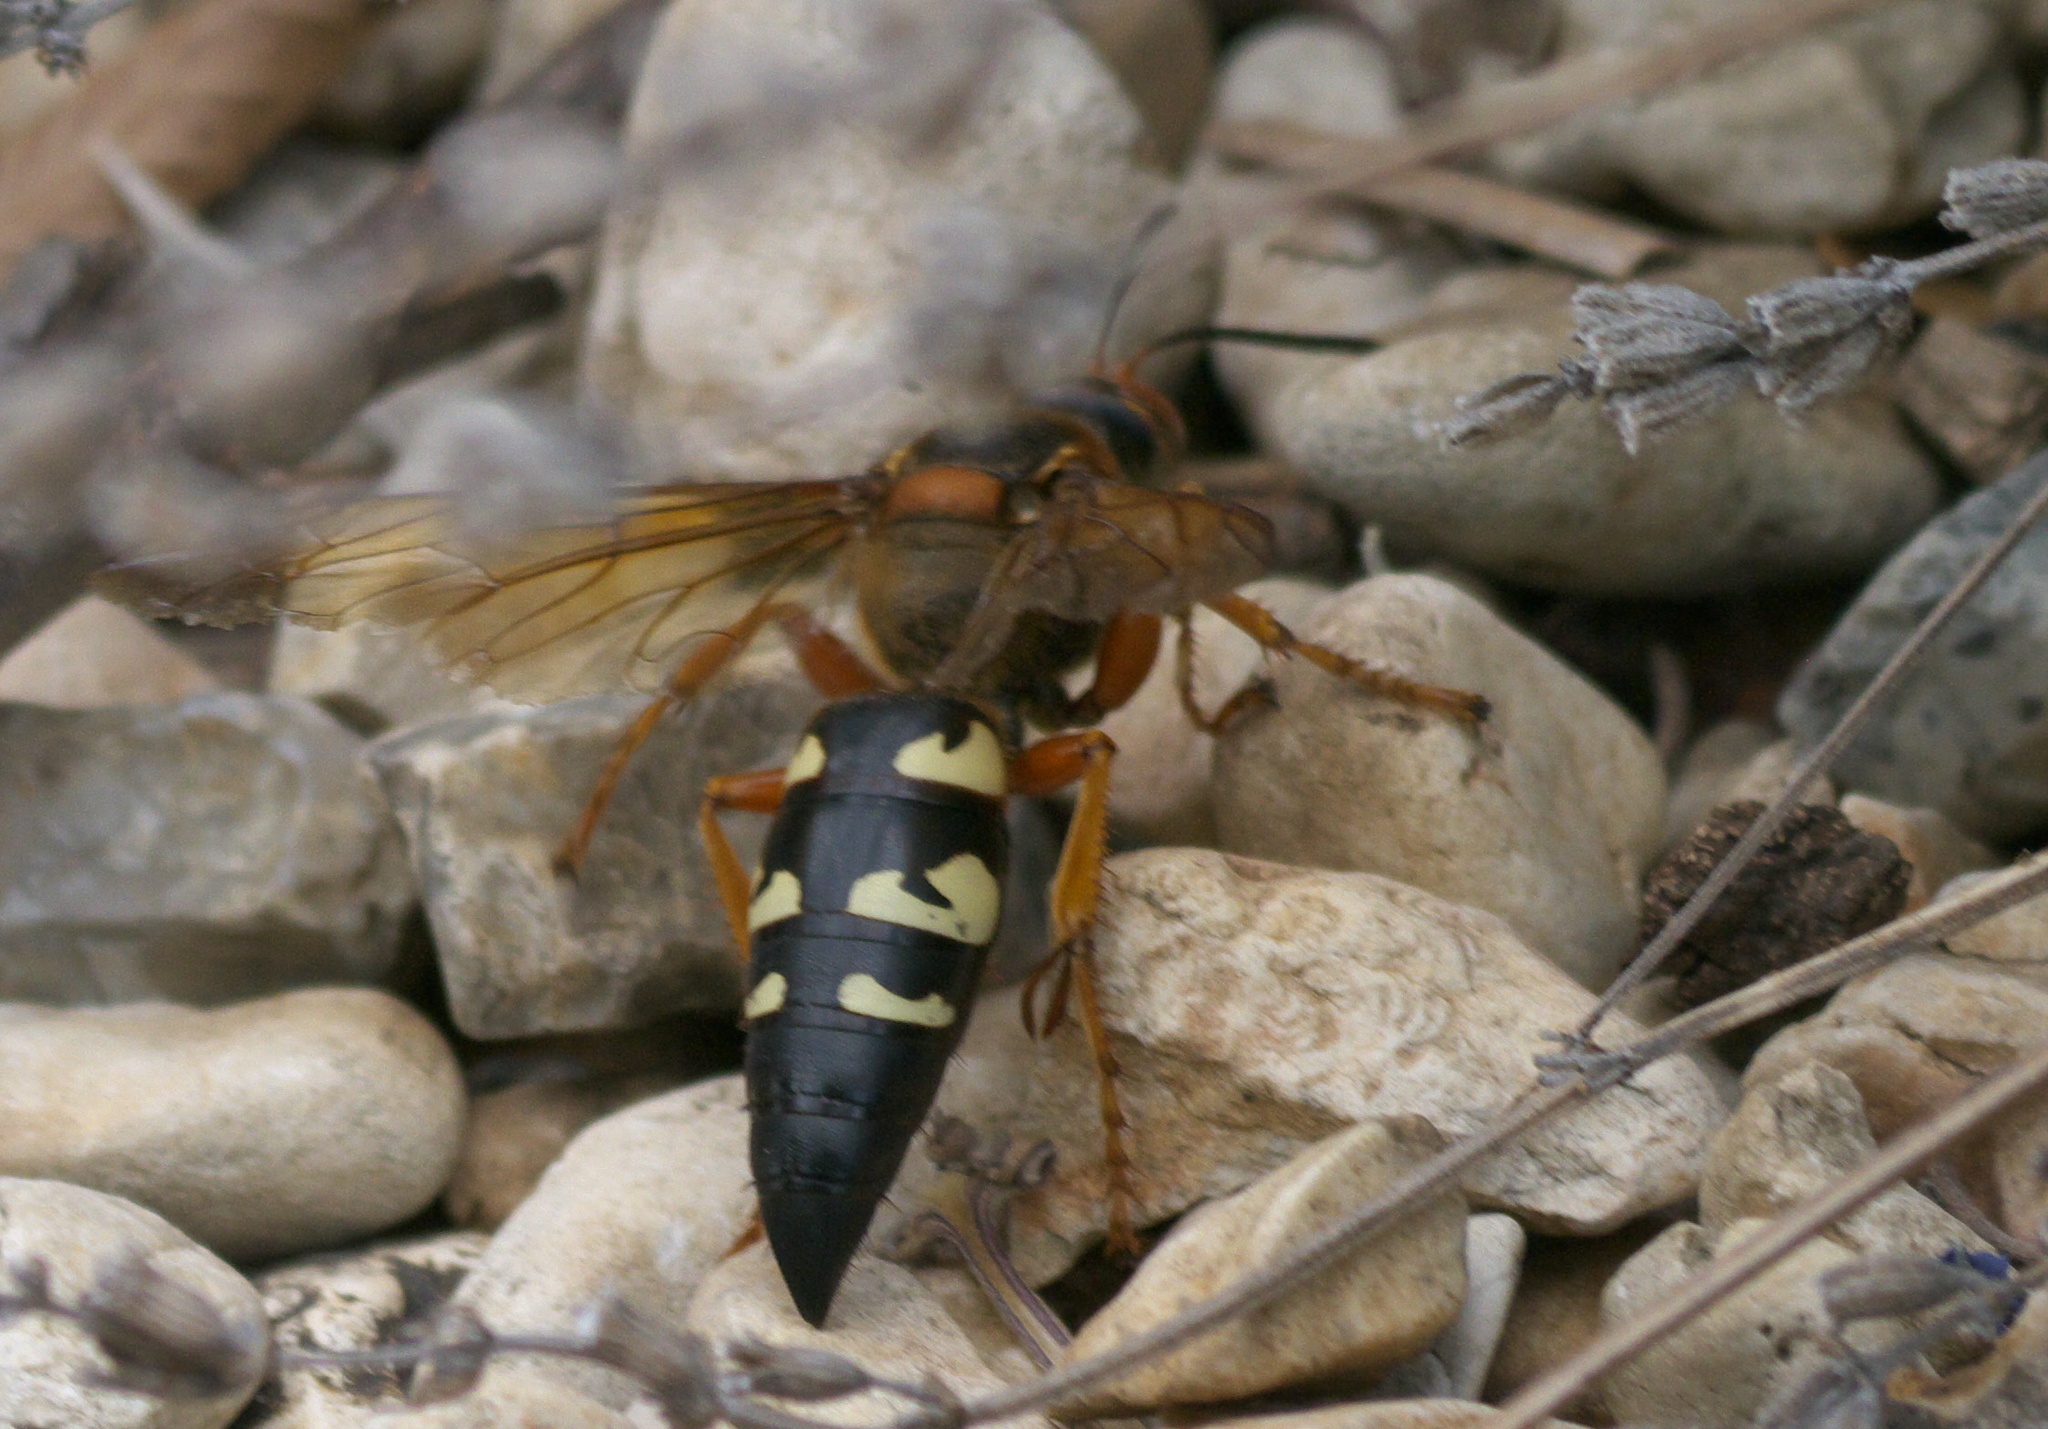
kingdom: Animalia
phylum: Arthropoda
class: Insecta
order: Hymenoptera
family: Crabronidae
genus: Sphecius
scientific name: Sphecius speciosus
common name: Cicada killer
